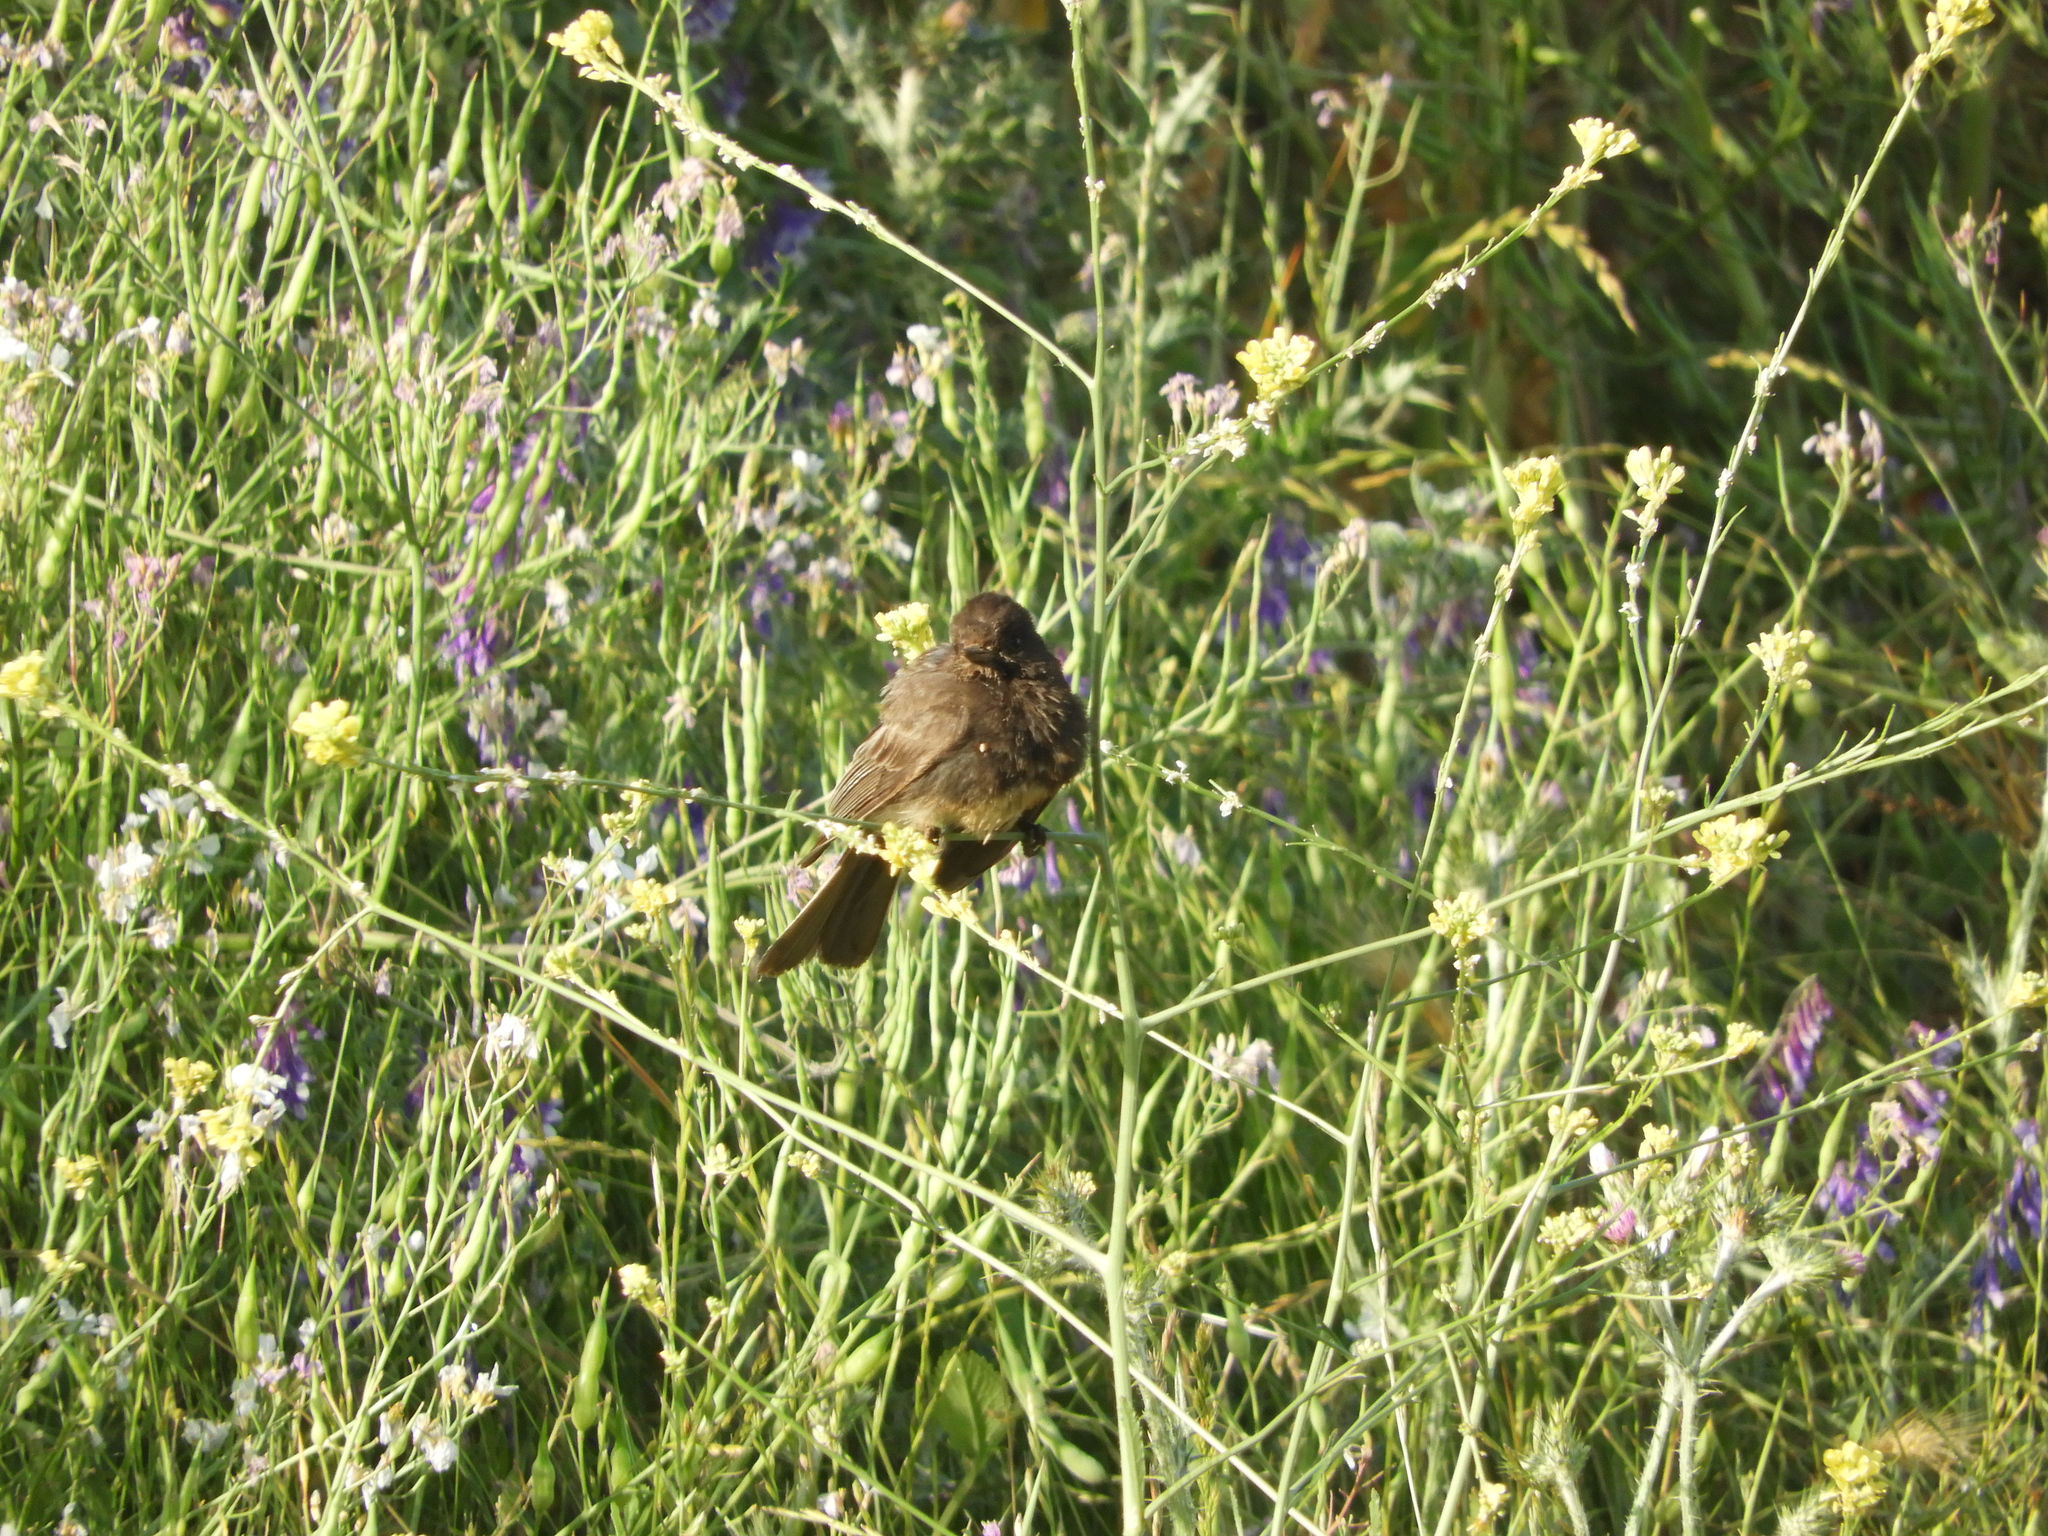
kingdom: Animalia
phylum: Chordata
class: Aves
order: Passeriformes
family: Tyrannidae
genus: Sayornis
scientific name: Sayornis nigricans
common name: Black phoebe
